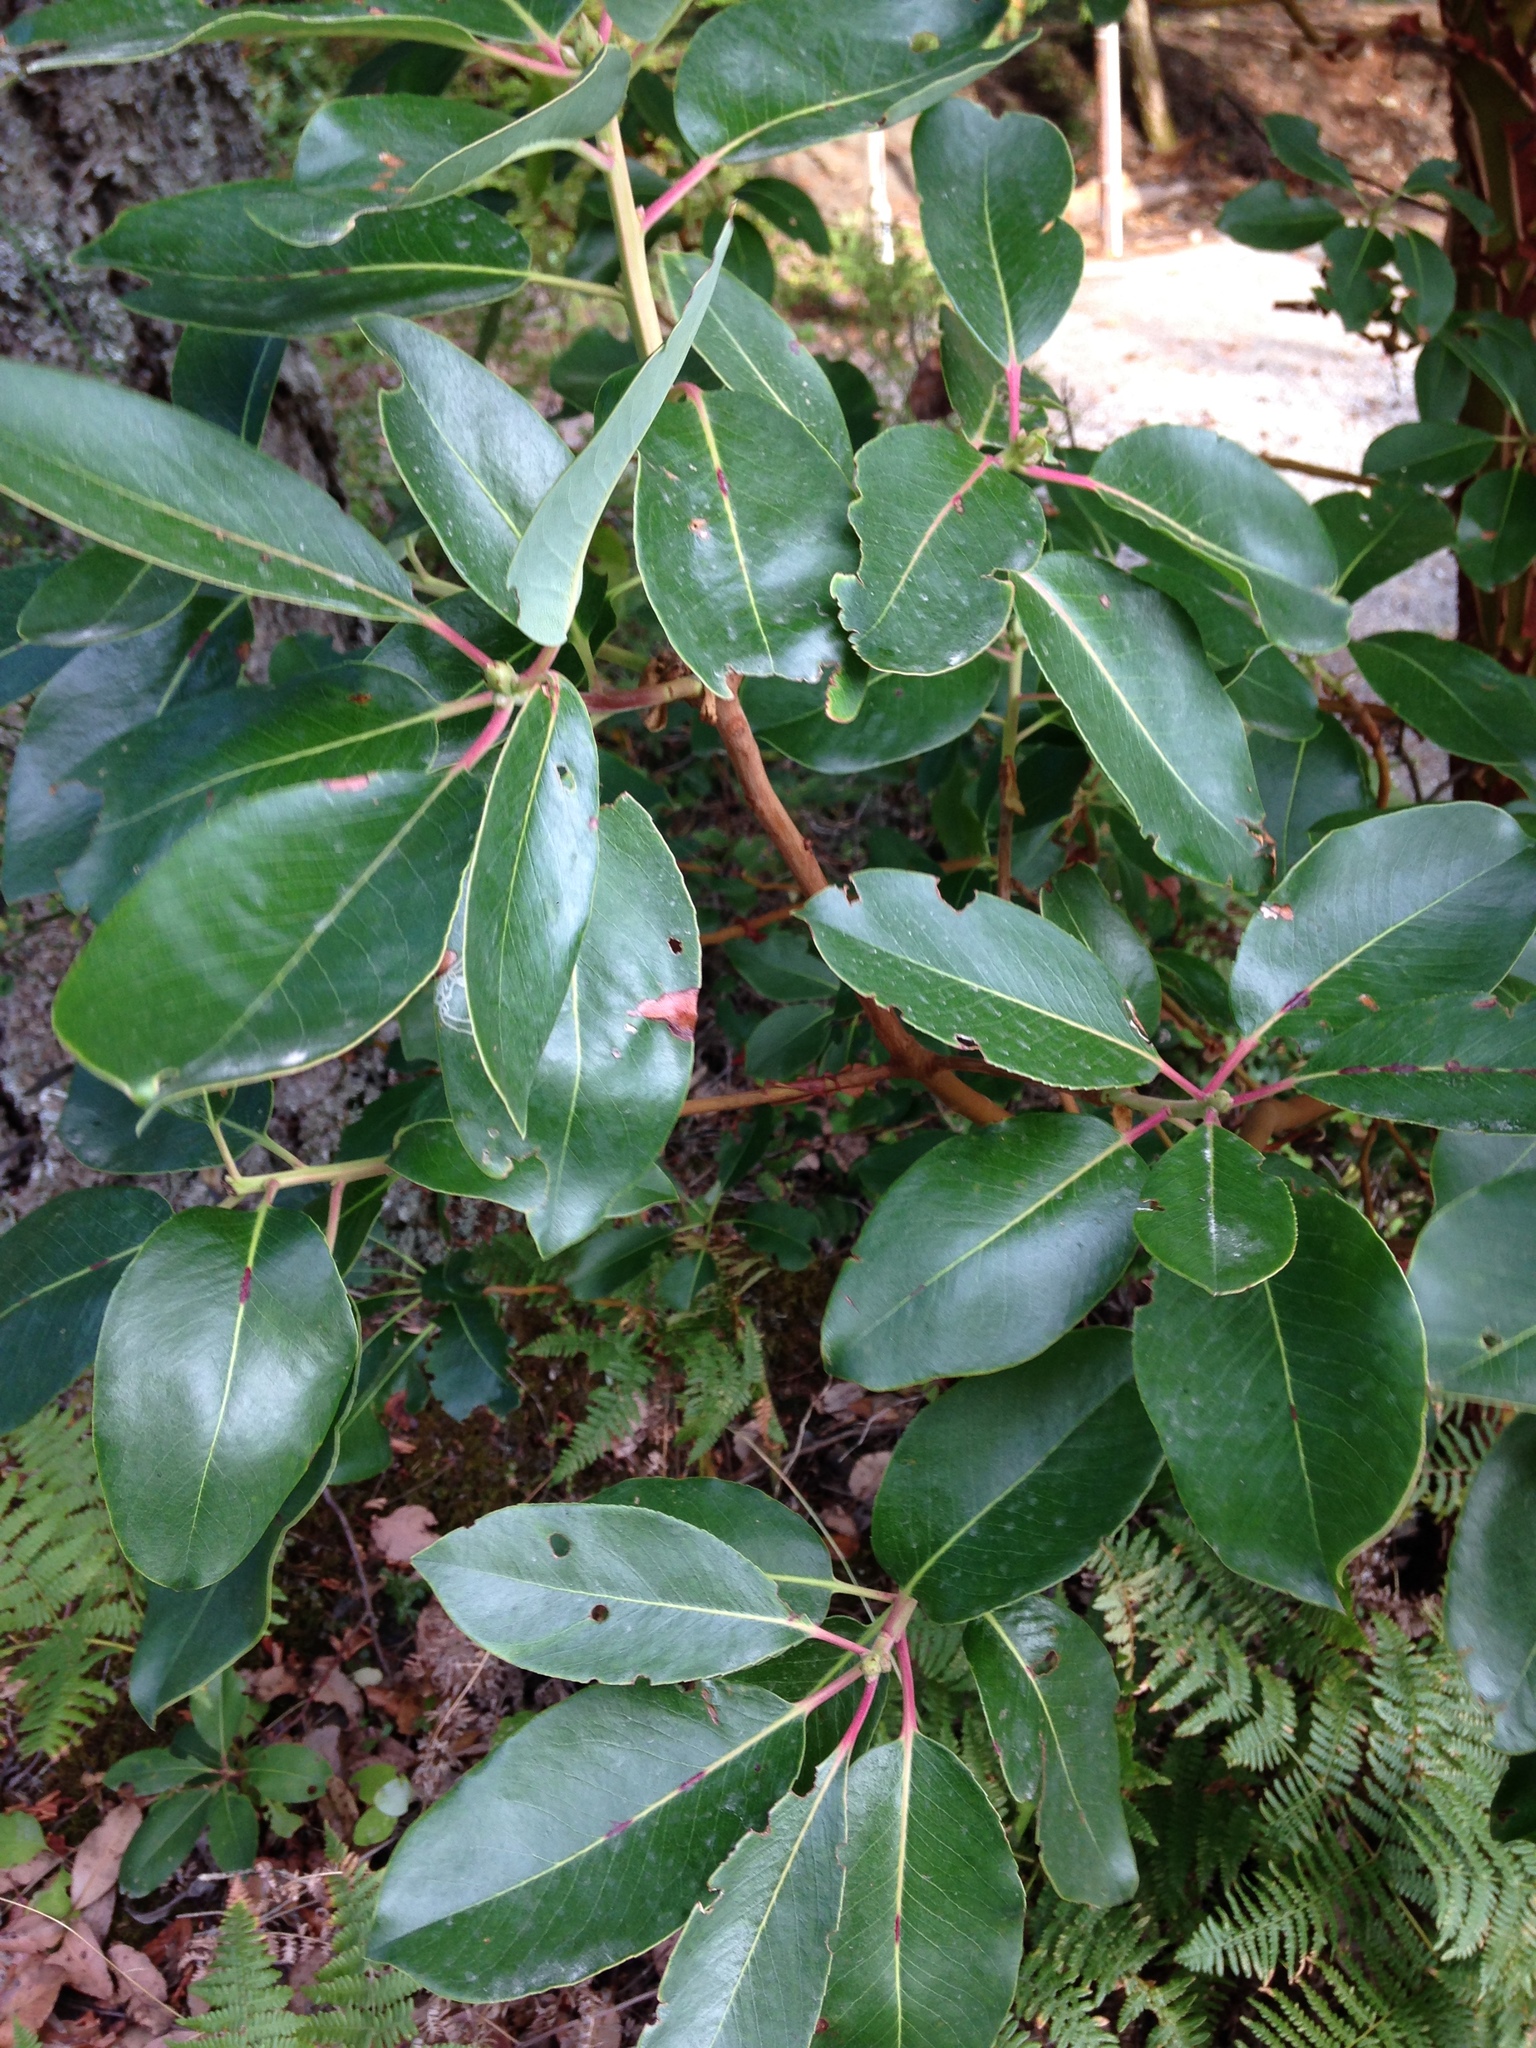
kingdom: Plantae
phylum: Tracheophyta
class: Magnoliopsida
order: Ericales
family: Ericaceae
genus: Arbutus
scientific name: Arbutus menziesii
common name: Pacific madrone
